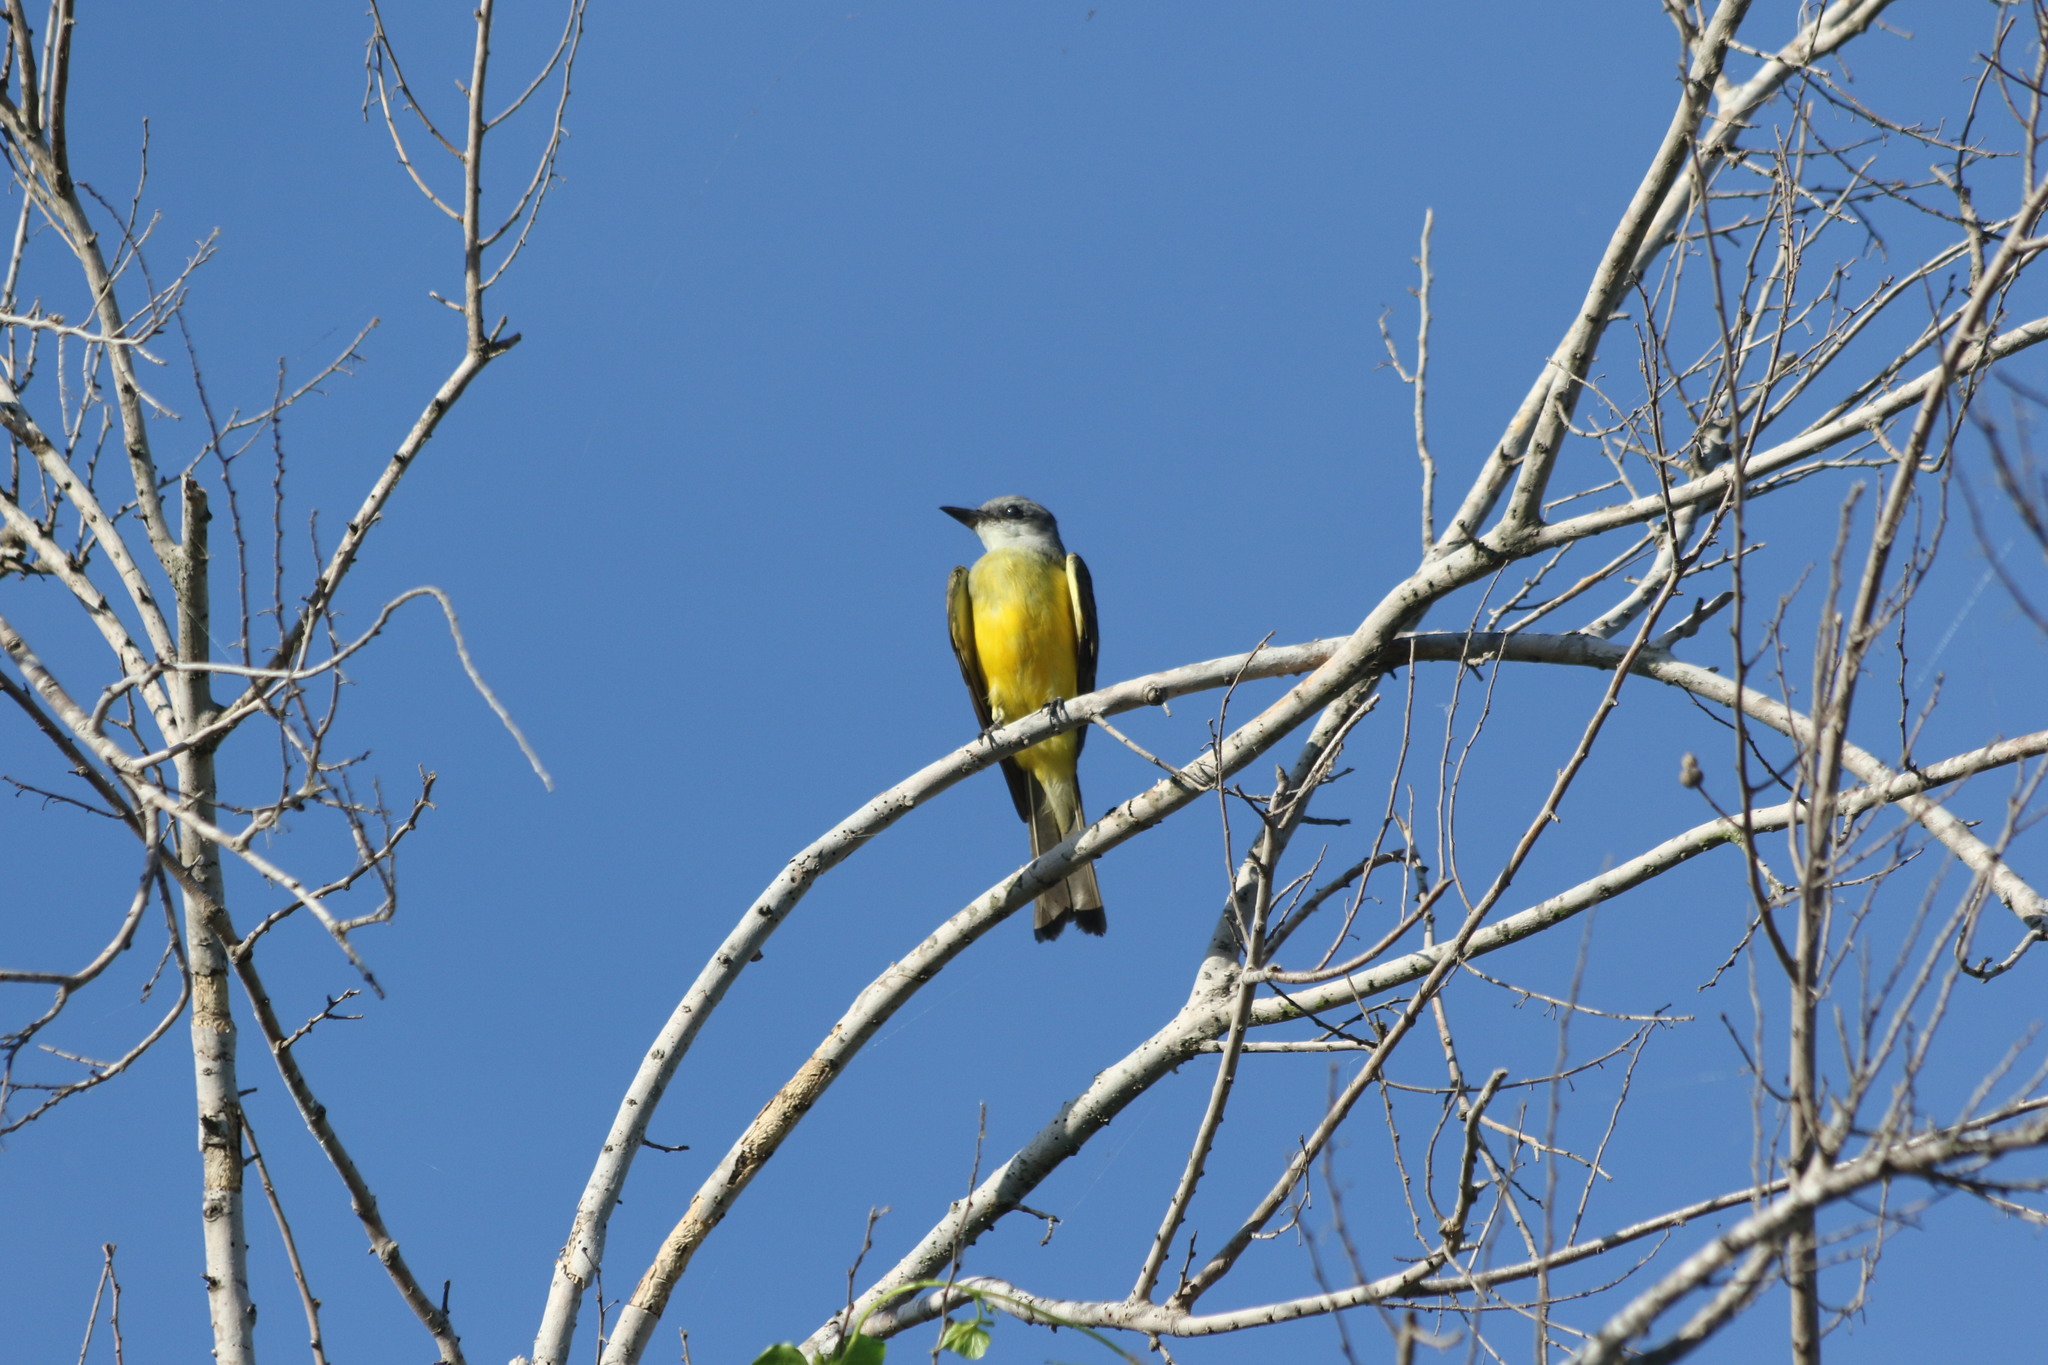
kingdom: Animalia
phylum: Chordata
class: Aves
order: Passeriformes
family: Tyrannidae
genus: Tyrannus
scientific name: Tyrannus couchii
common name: Couch's kingbird
